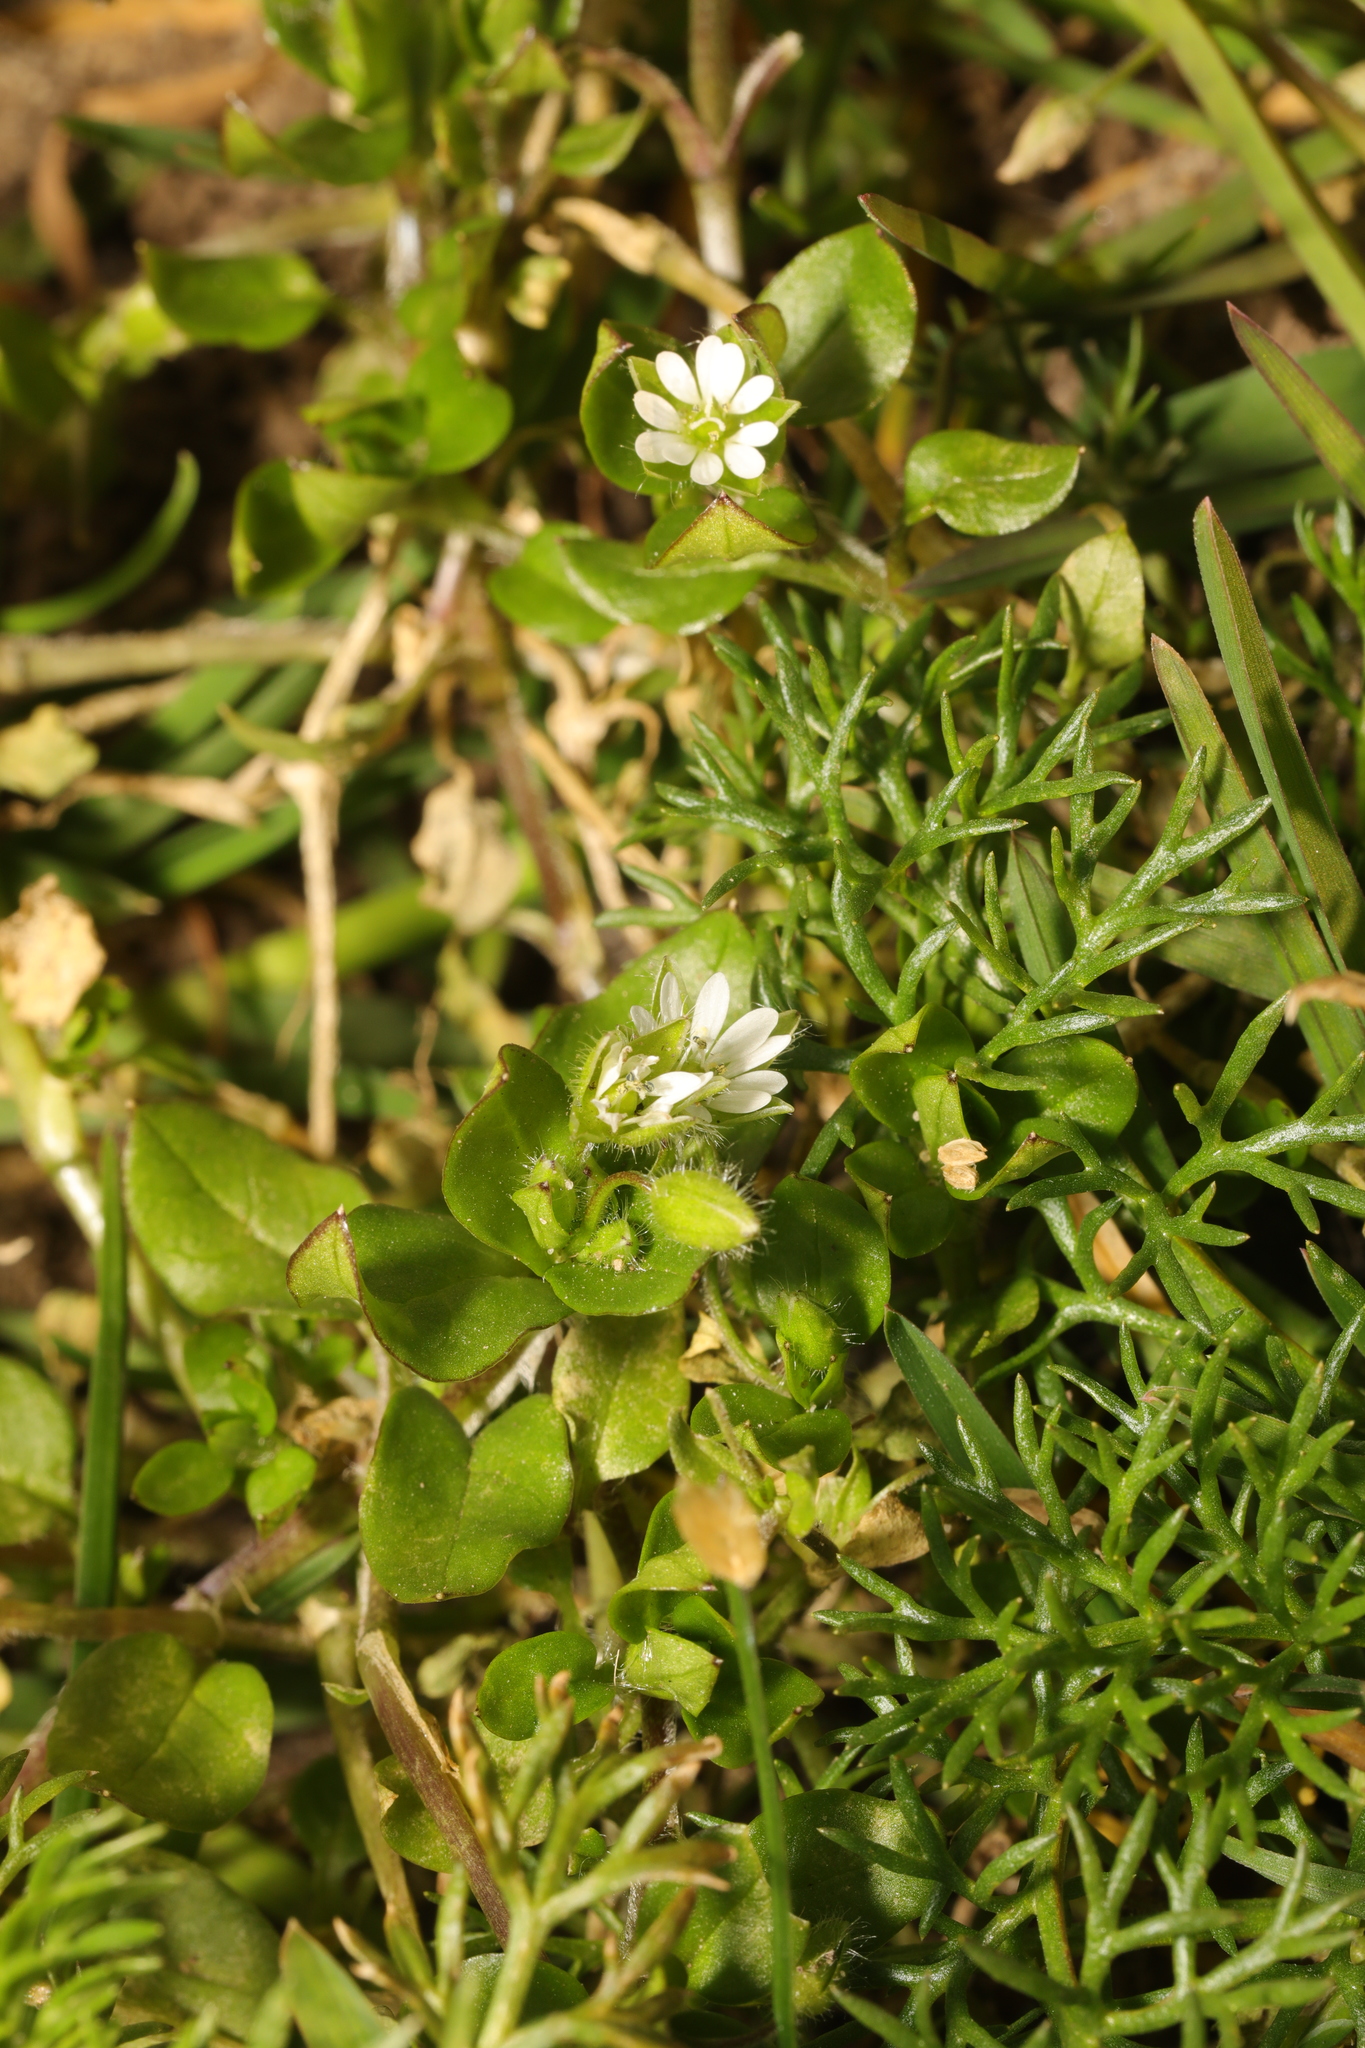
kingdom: Plantae
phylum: Tracheophyta
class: Magnoliopsida
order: Caryophyllales
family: Caryophyllaceae
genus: Stellaria
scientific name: Stellaria media
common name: Common chickweed
